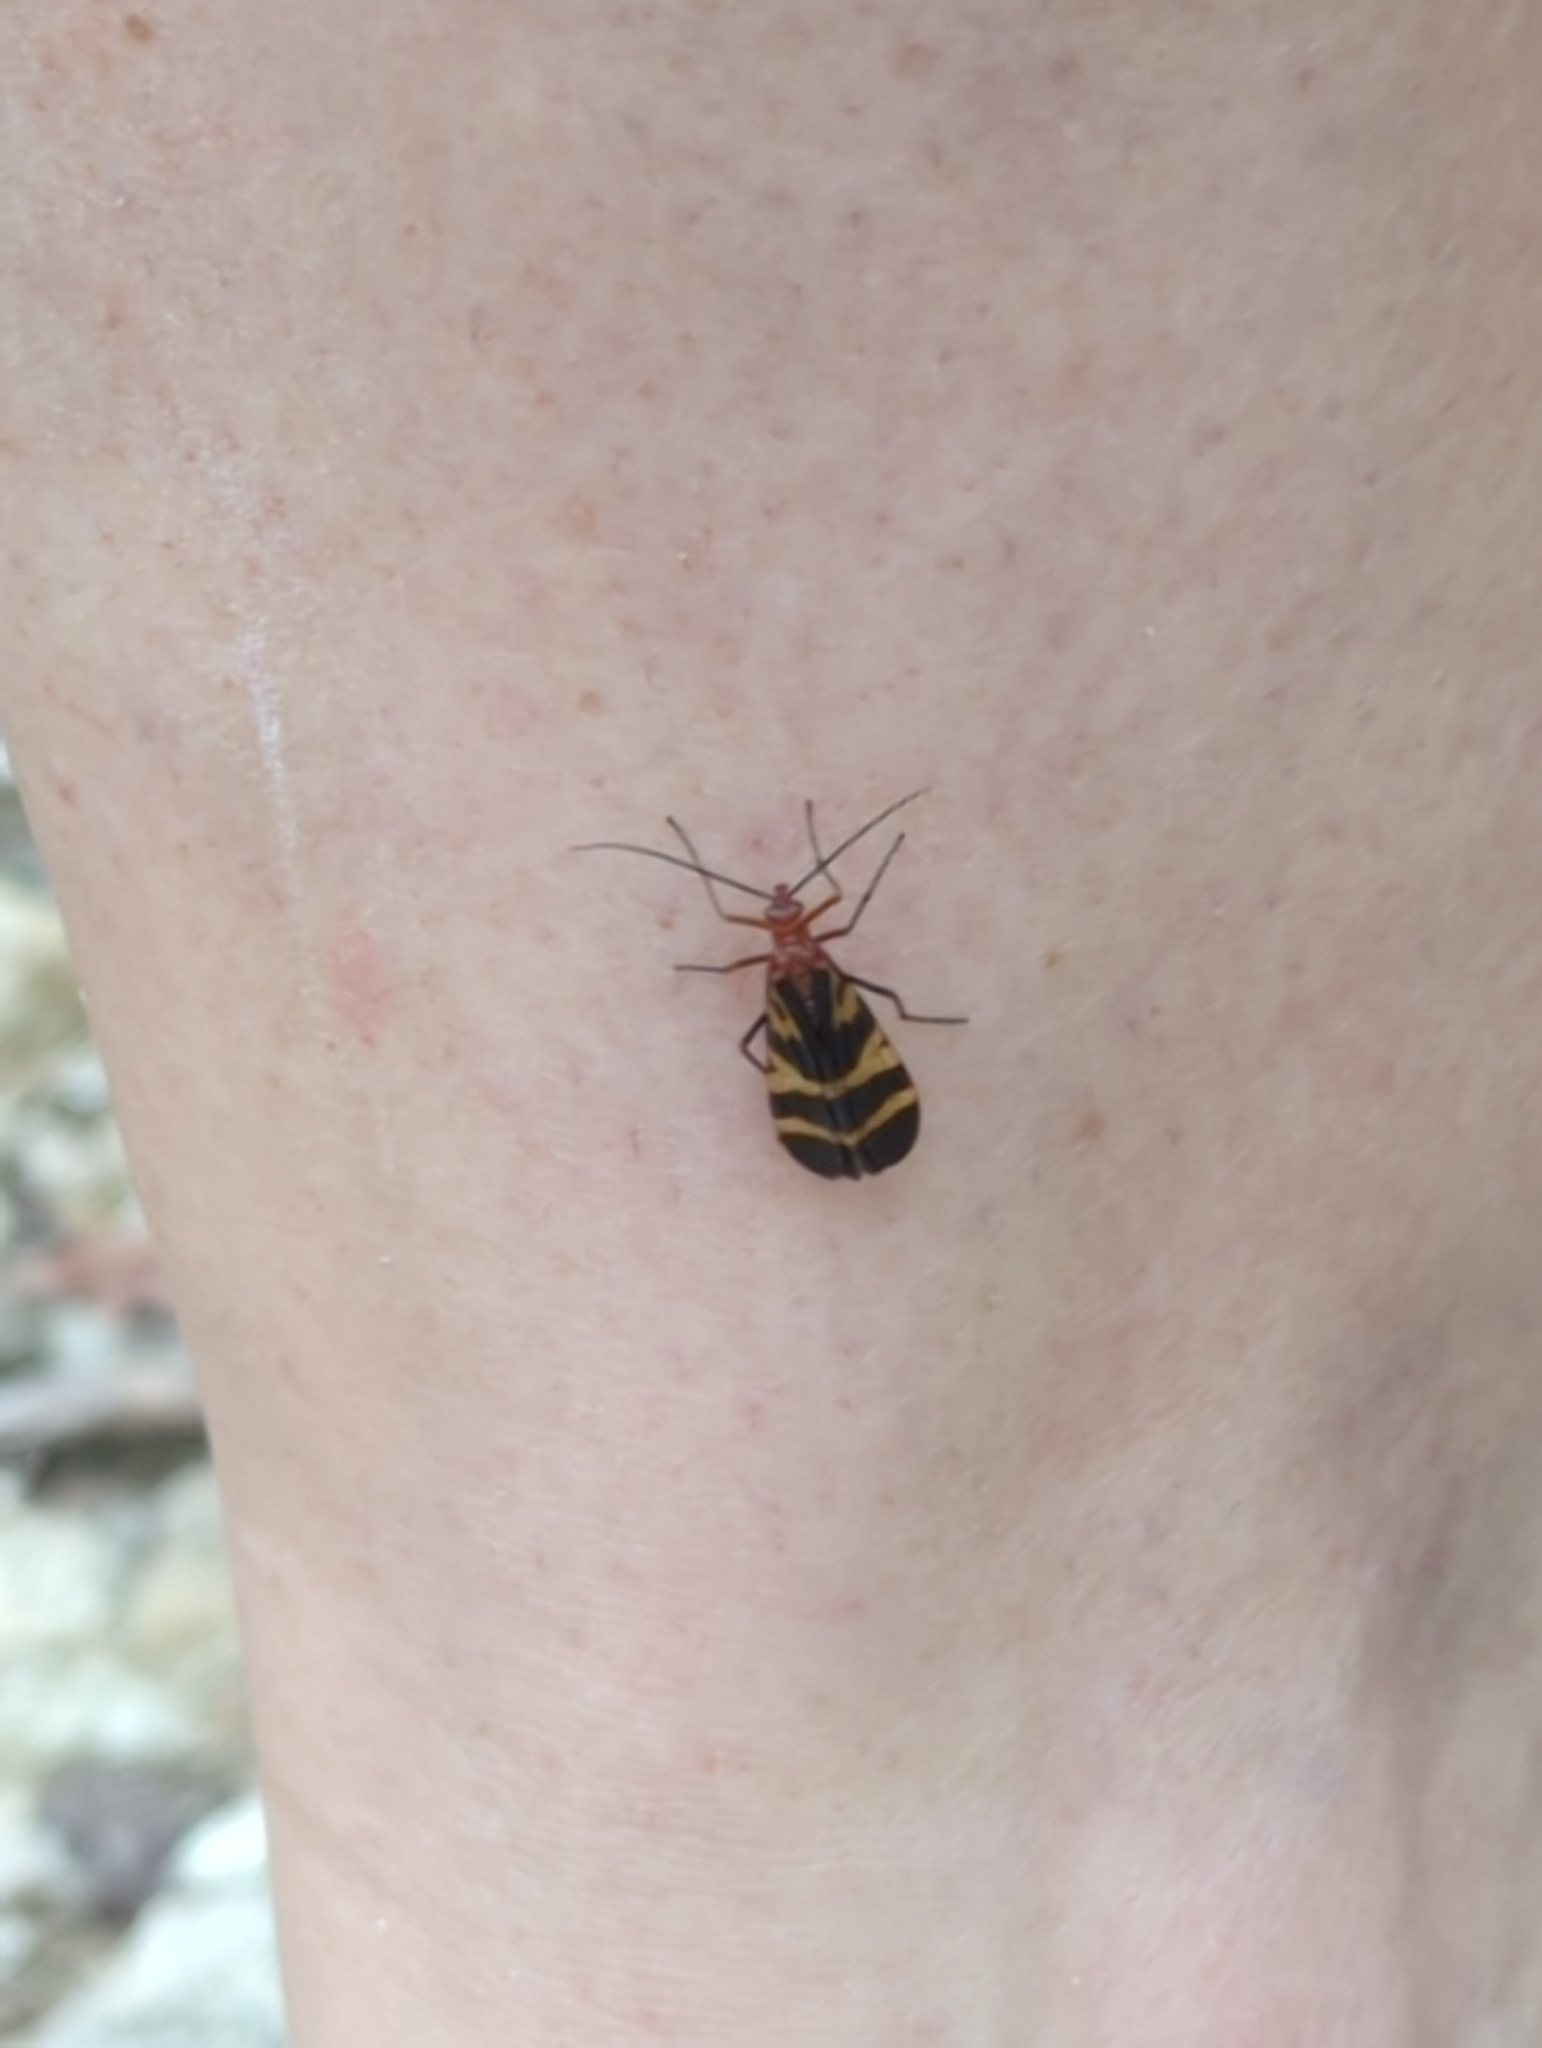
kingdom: Animalia
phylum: Arthropoda
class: Insecta
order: Mecoptera
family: Panorpidae
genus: Panorpa
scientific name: Panorpa nuptialis
